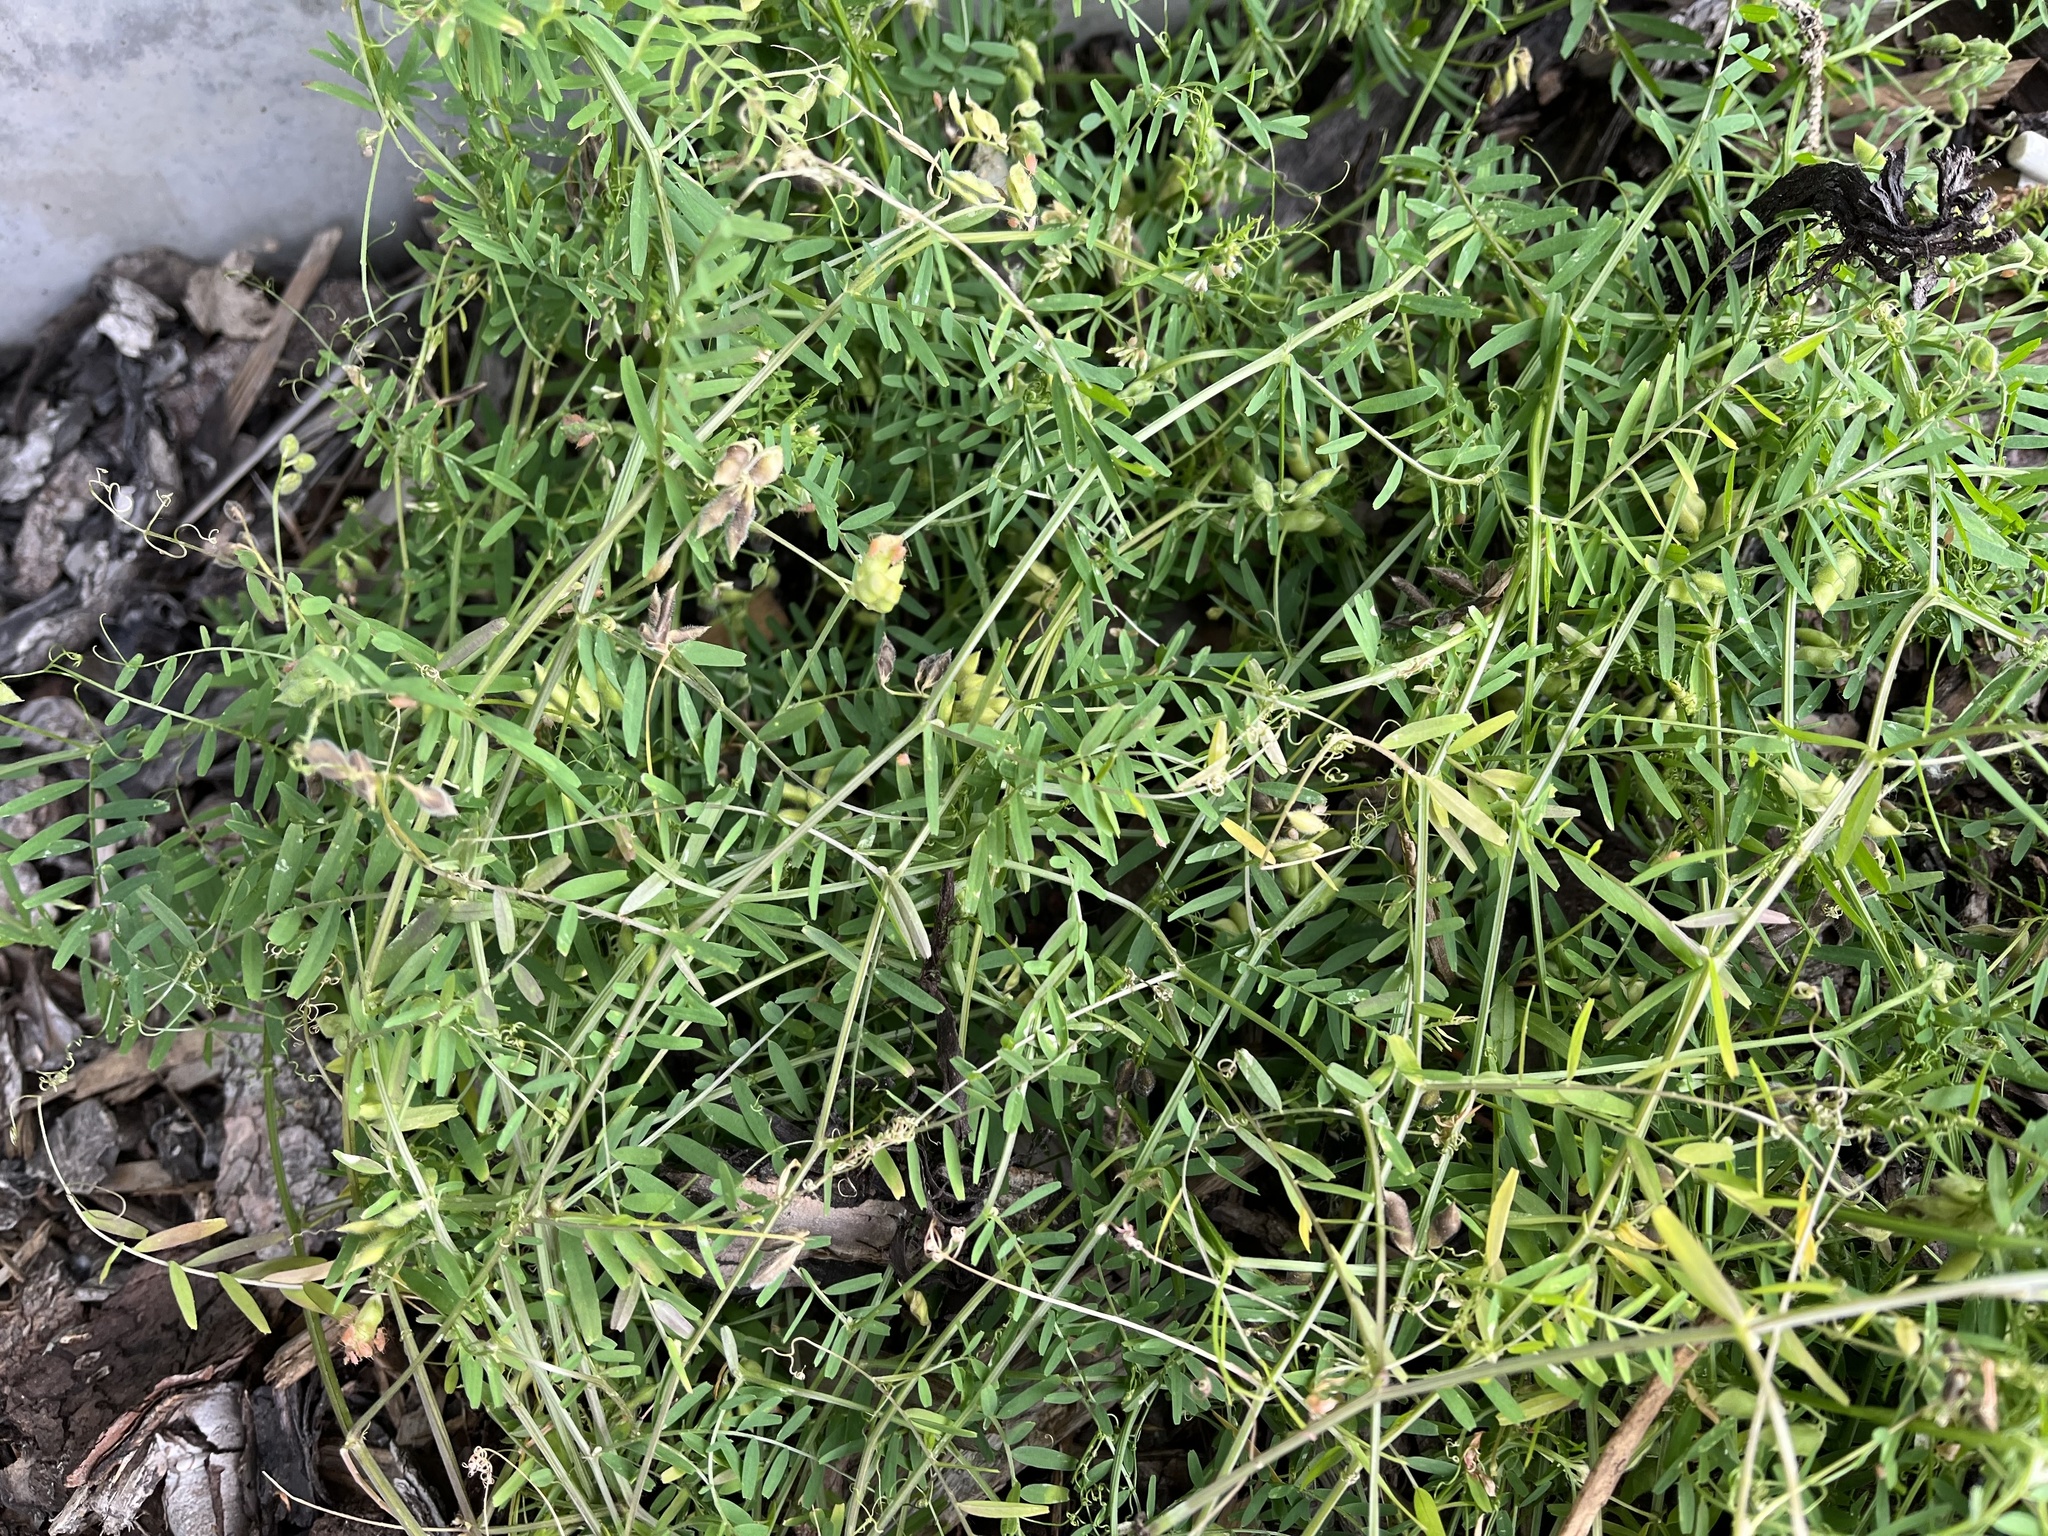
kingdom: Plantae
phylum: Tracheophyta
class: Magnoliopsida
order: Fabales
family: Fabaceae
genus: Vicia
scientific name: Vicia hirsuta
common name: Tiny vetch
